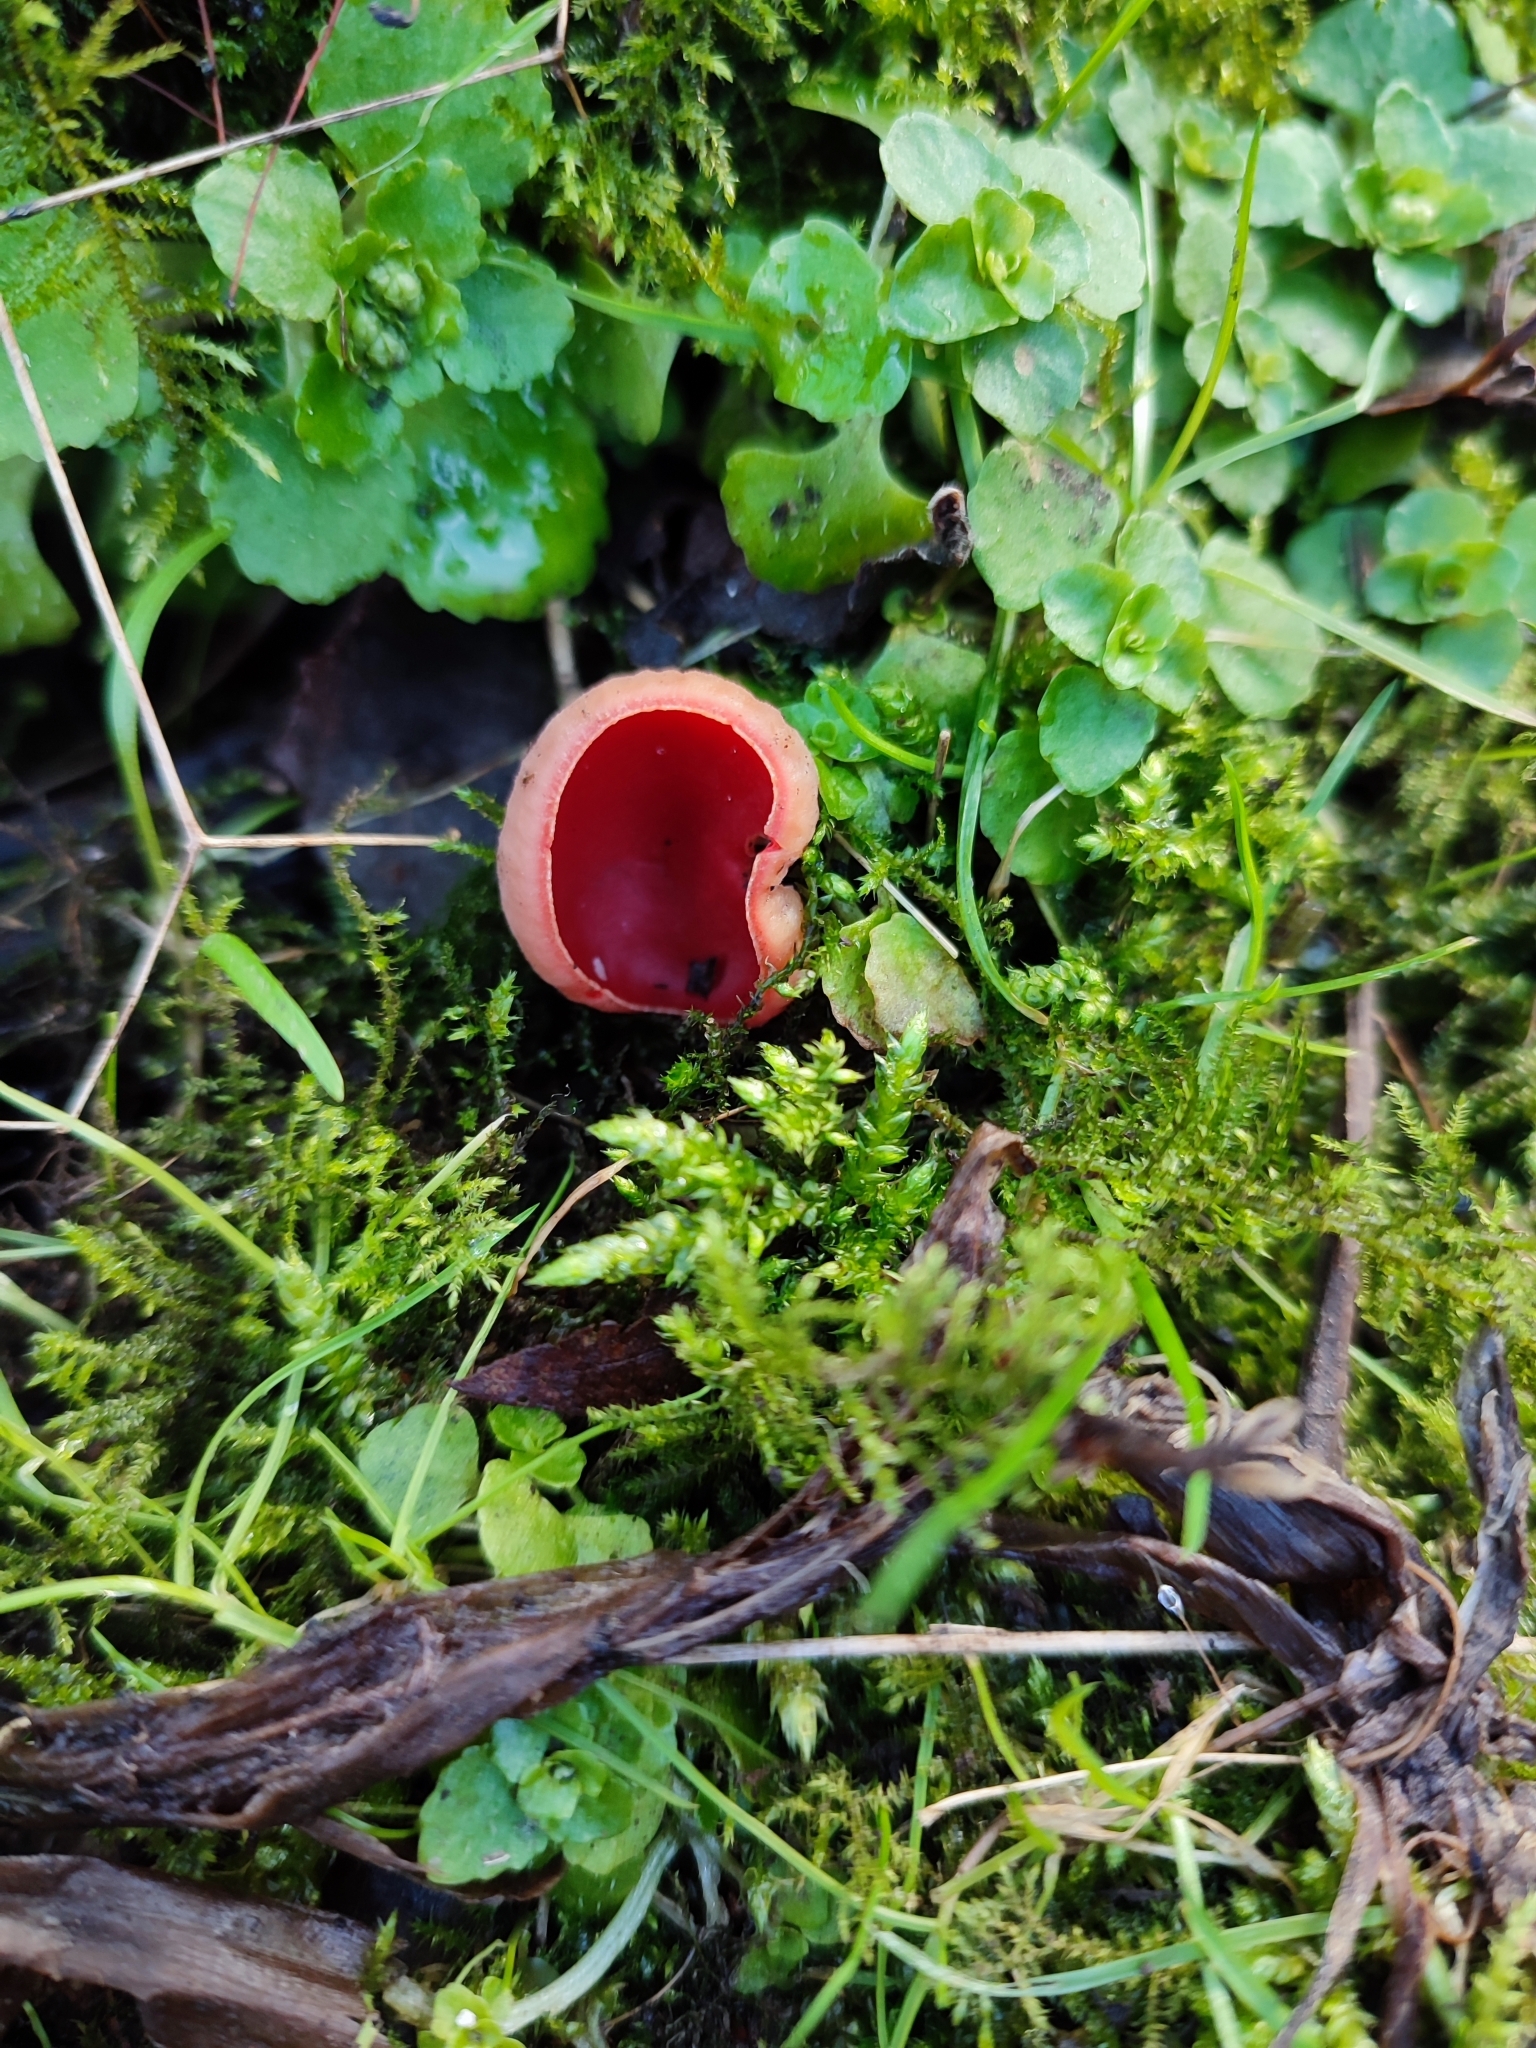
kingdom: Fungi
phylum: Ascomycota
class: Pezizomycetes
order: Pezizales
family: Sarcoscyphaceae
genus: Sarcoscypha
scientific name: Sarcoscypha
